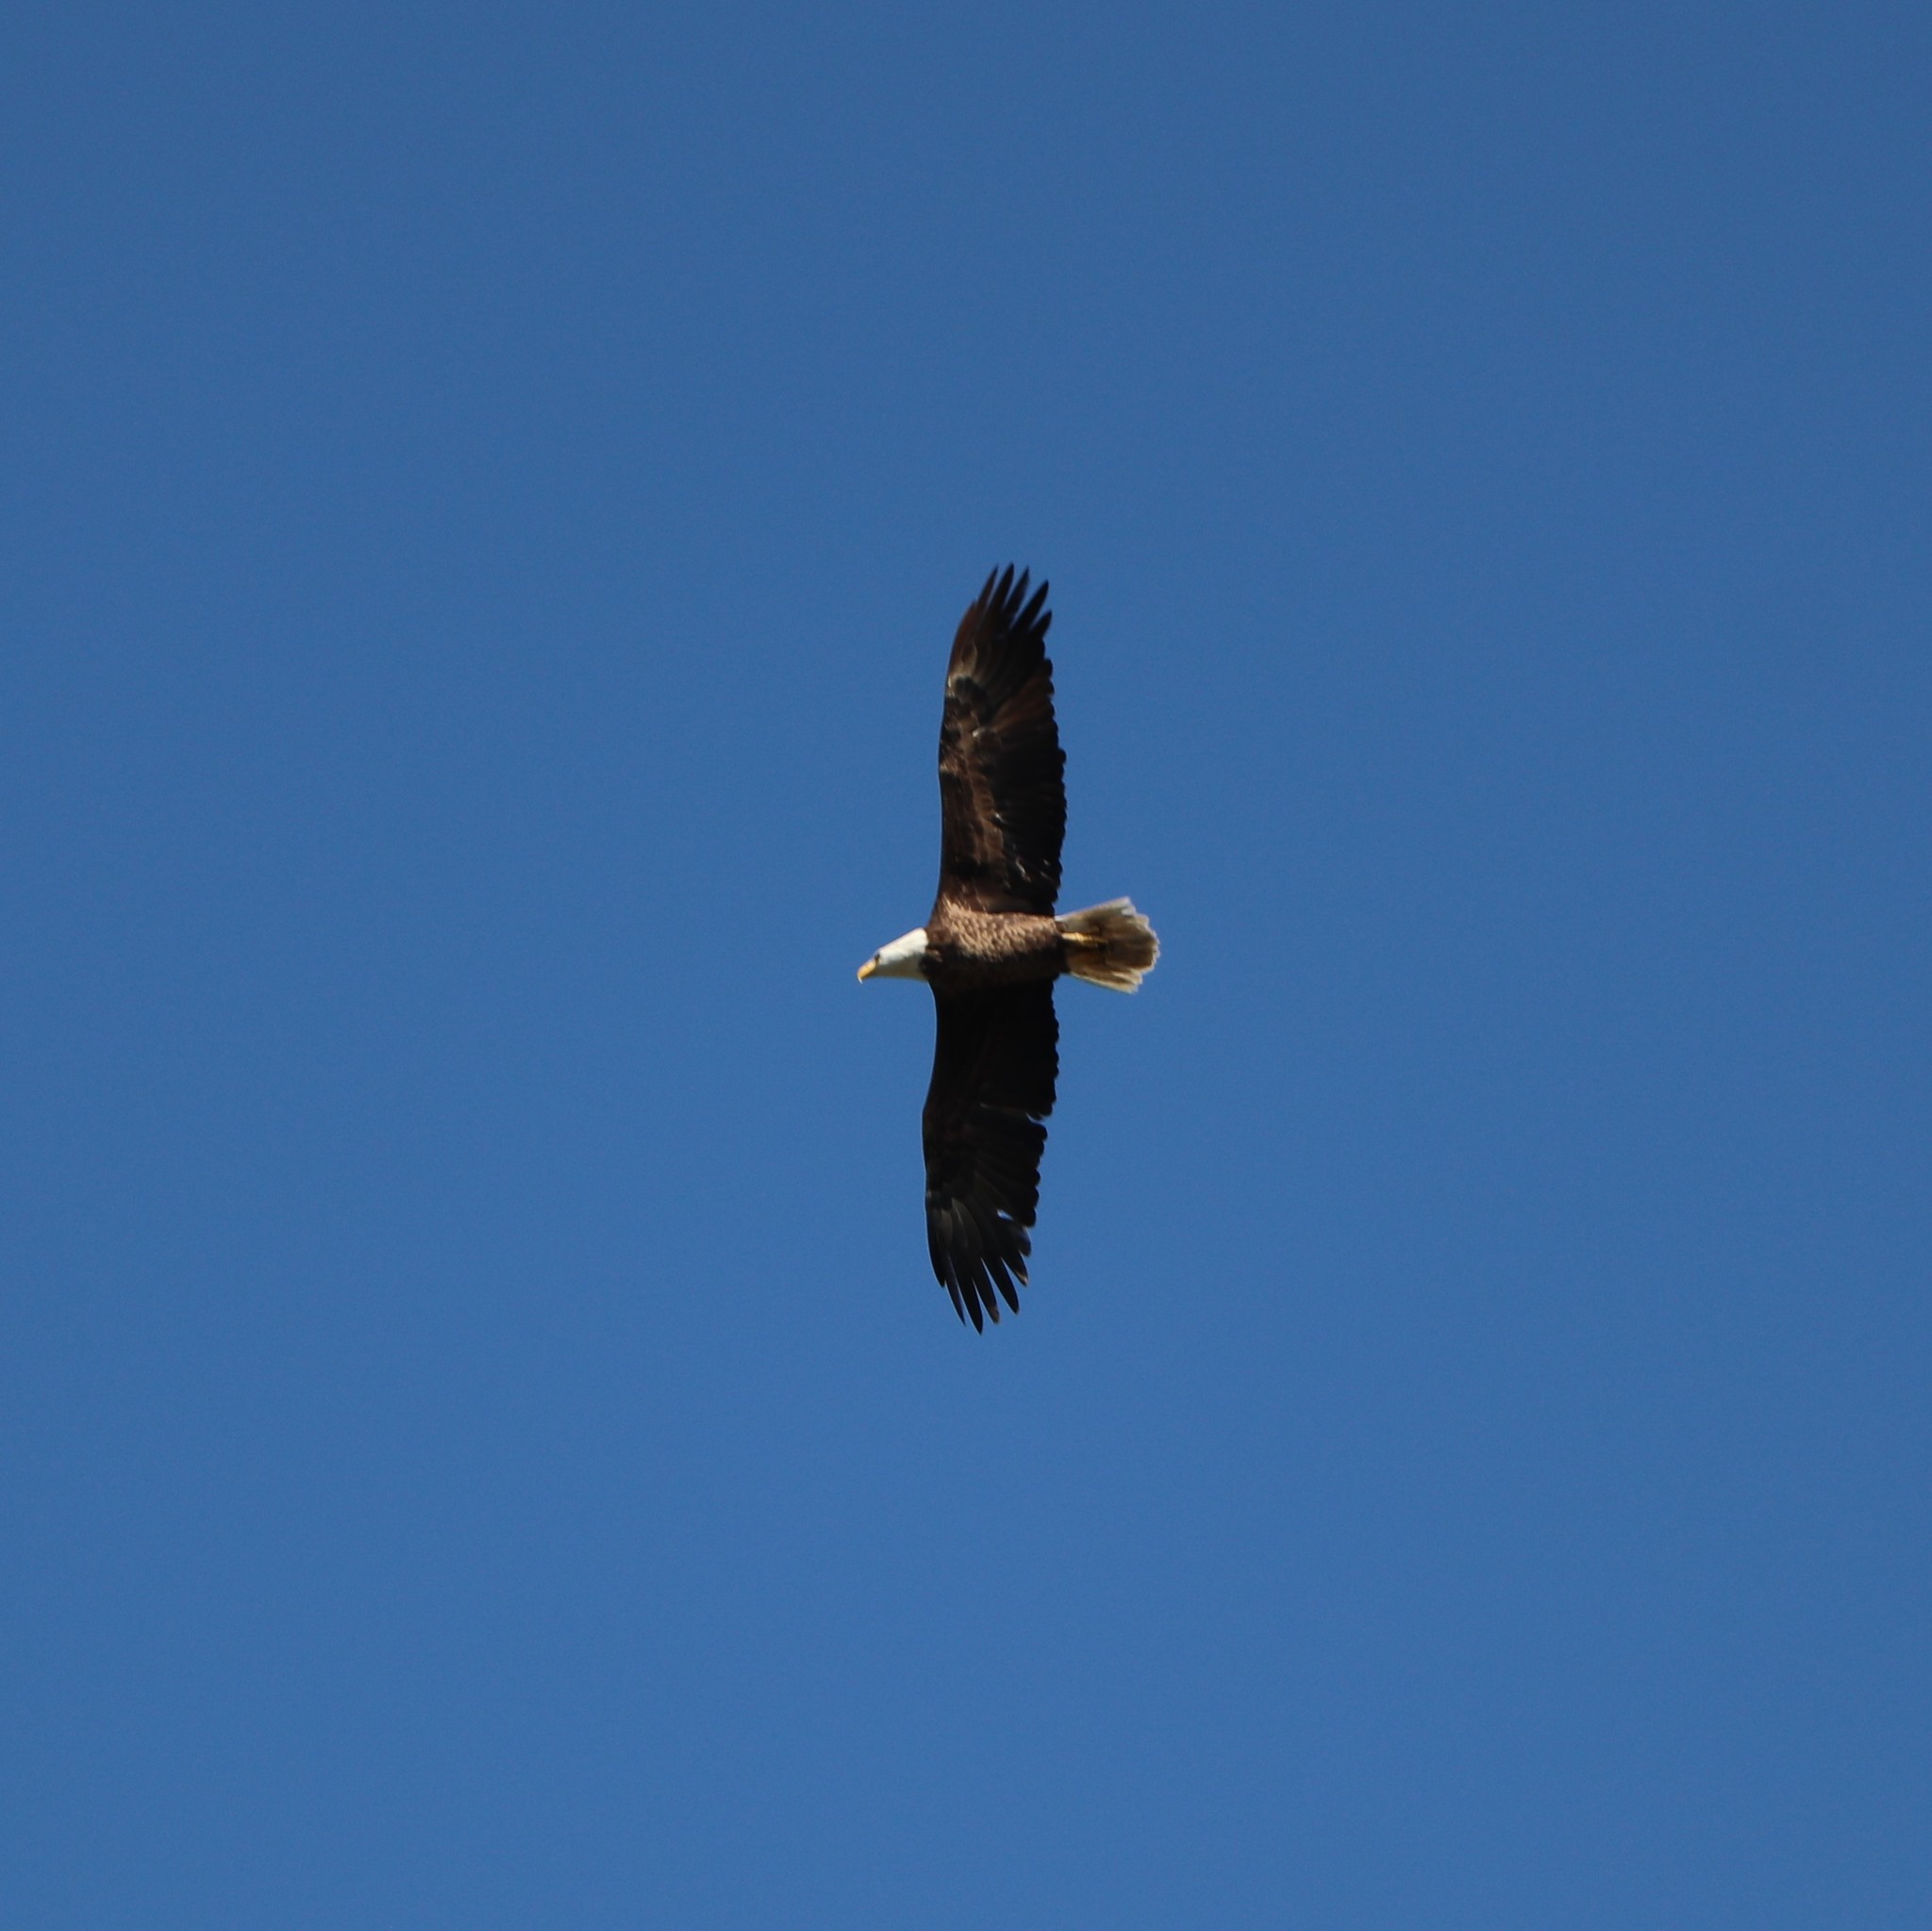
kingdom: Animalia
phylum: Chordata
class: Aves
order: Accipitriformes
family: Accipitridae
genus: Haliaeetus
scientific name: Haliaeetus leucocephalus
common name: Bald eagle
